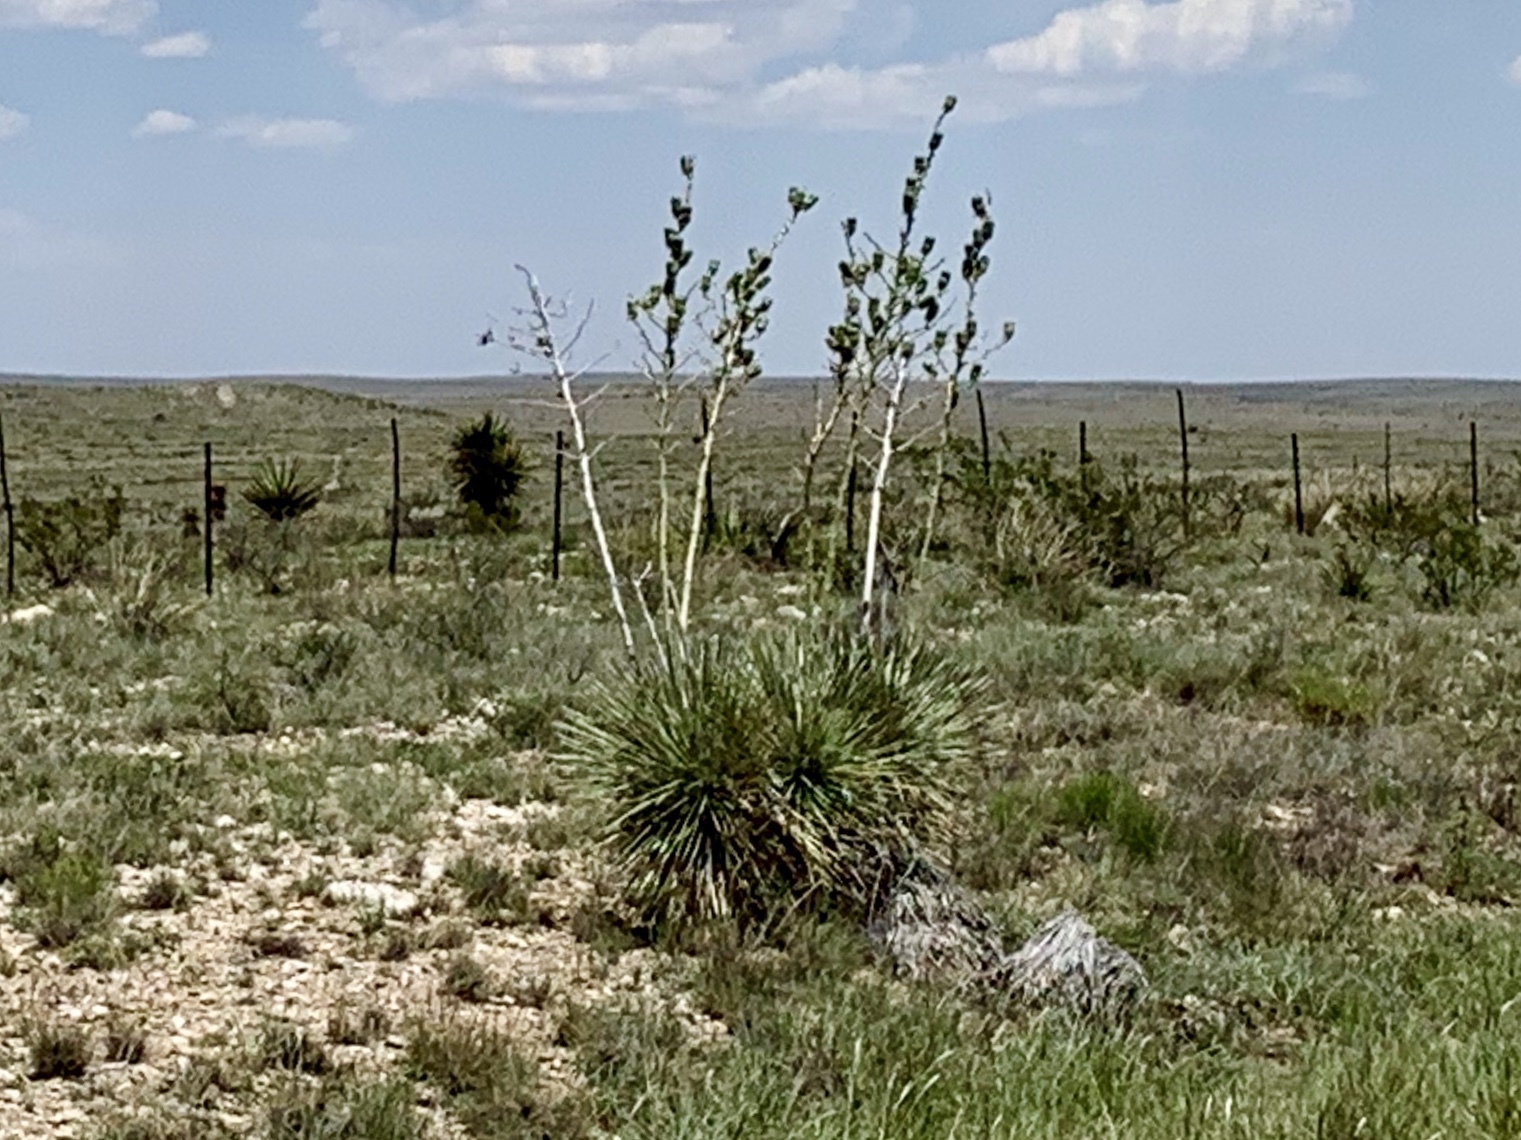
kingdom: Plantae
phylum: Tracheophyta
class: Liliopsida
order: Asparagales
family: Asparagaceae
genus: Yucca
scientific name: Yucca elata
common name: Palmella
